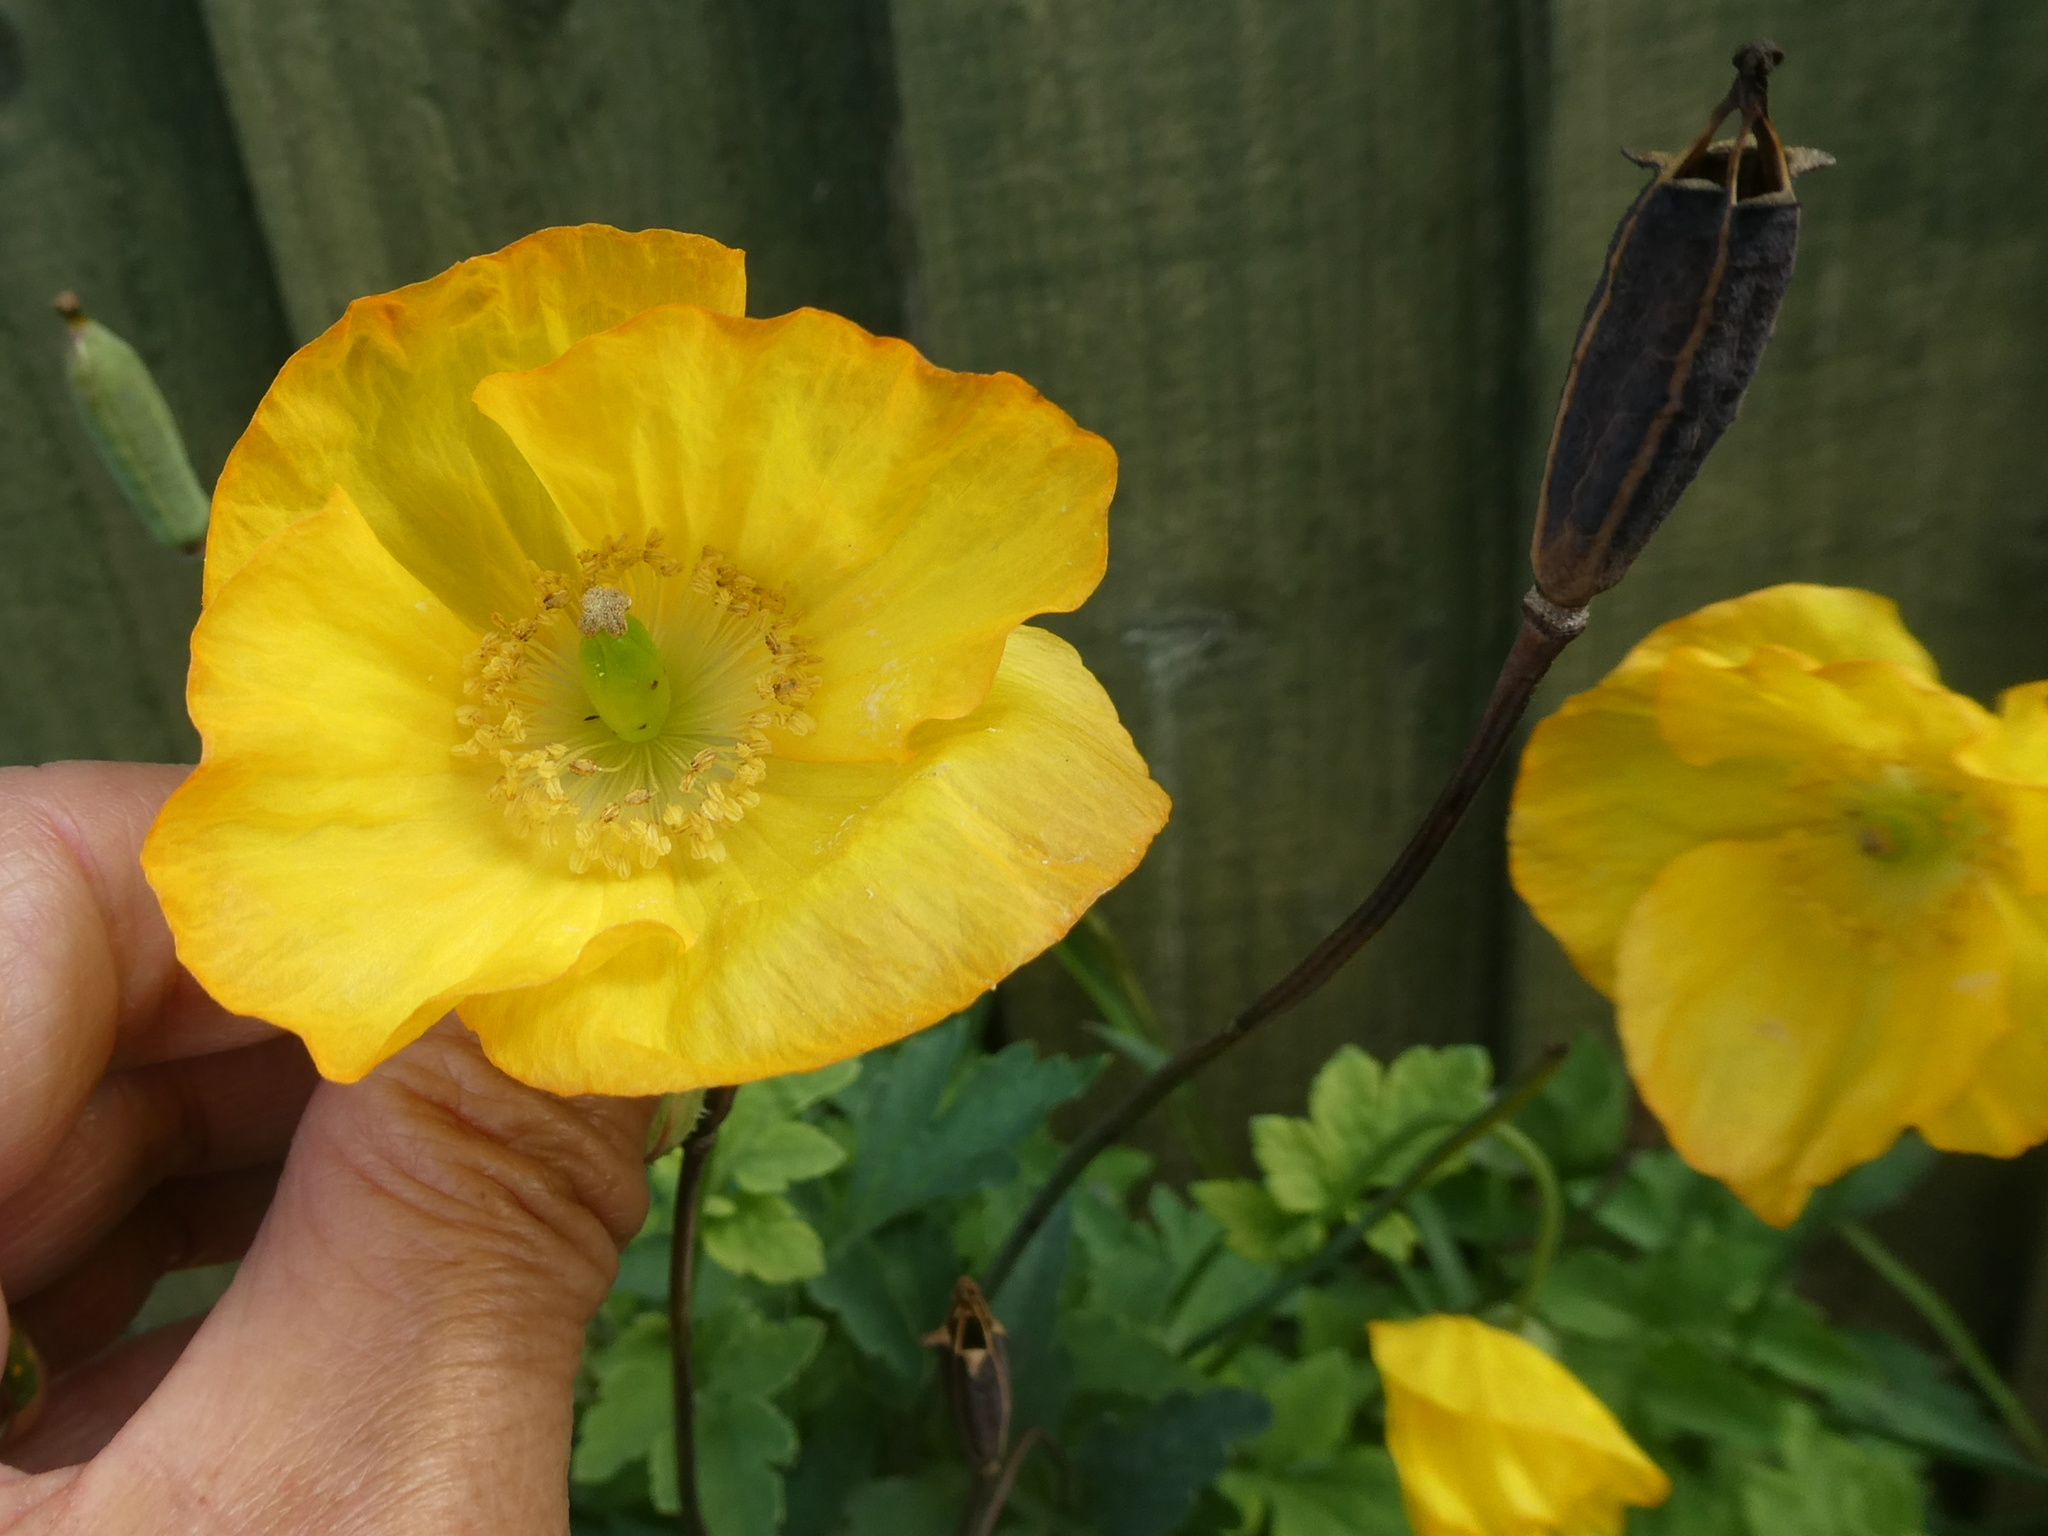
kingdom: Plantae
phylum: Tracheophyta
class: Magnoliopsida
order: Ranunculales
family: Papaveraceae
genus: Papaver
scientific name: Papaver cambricum
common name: Poppy
